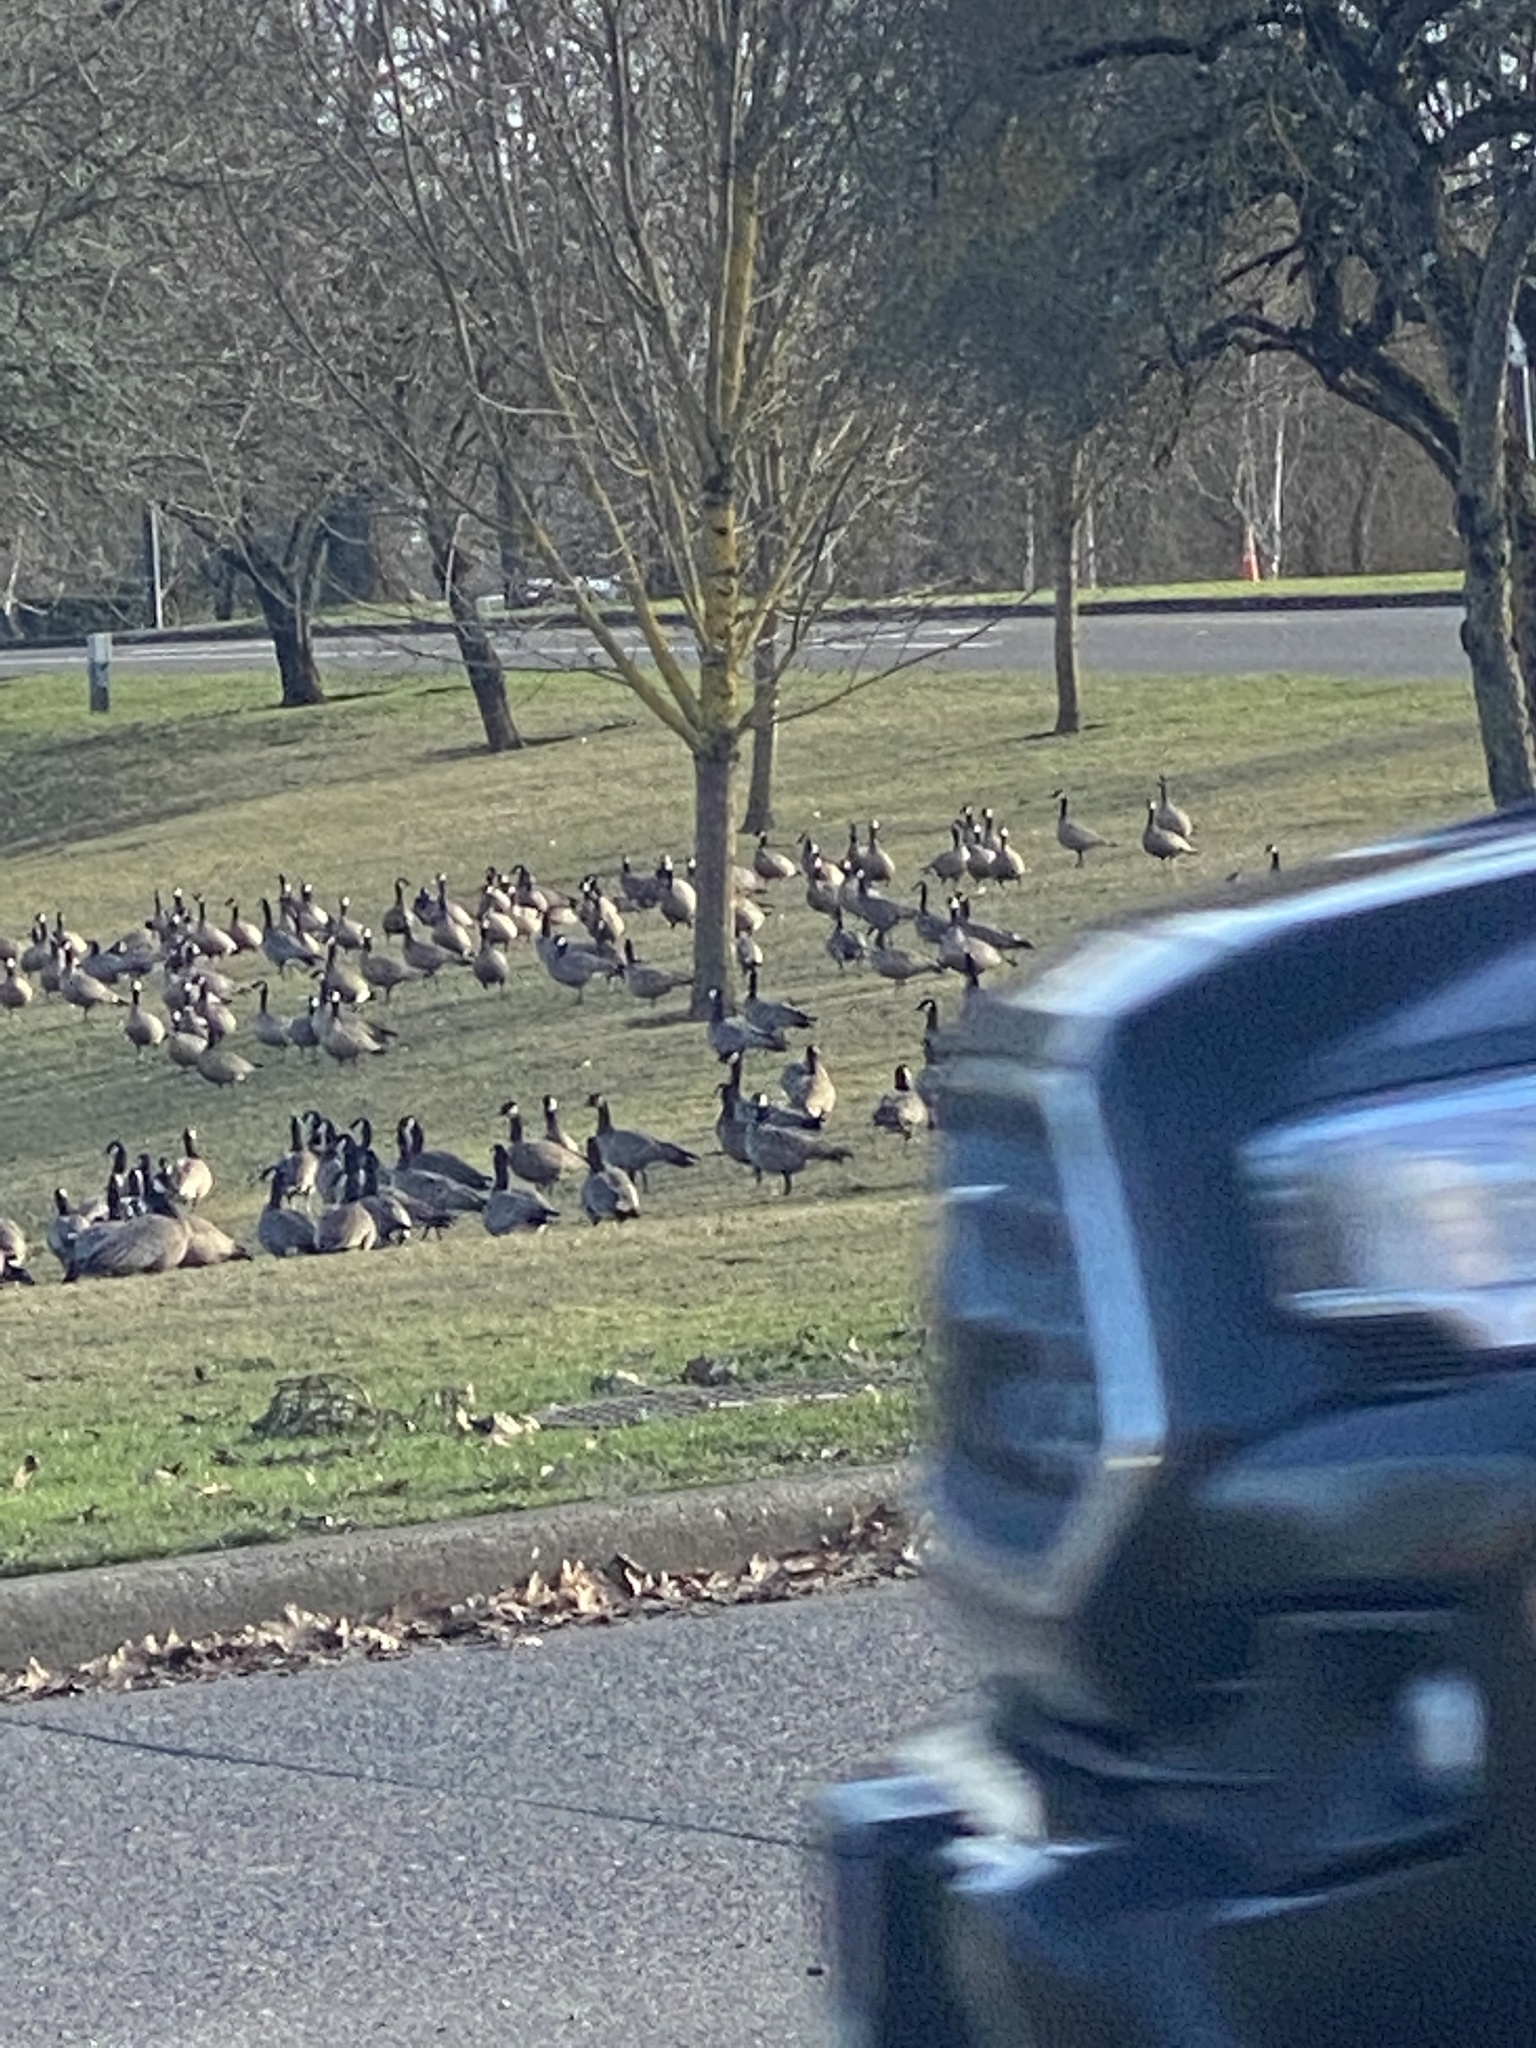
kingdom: Animalia
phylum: Chordata
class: Aves
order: Anseriformes
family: Anatidae
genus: Branta
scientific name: Branta hutchinsii
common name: Cackling goose
